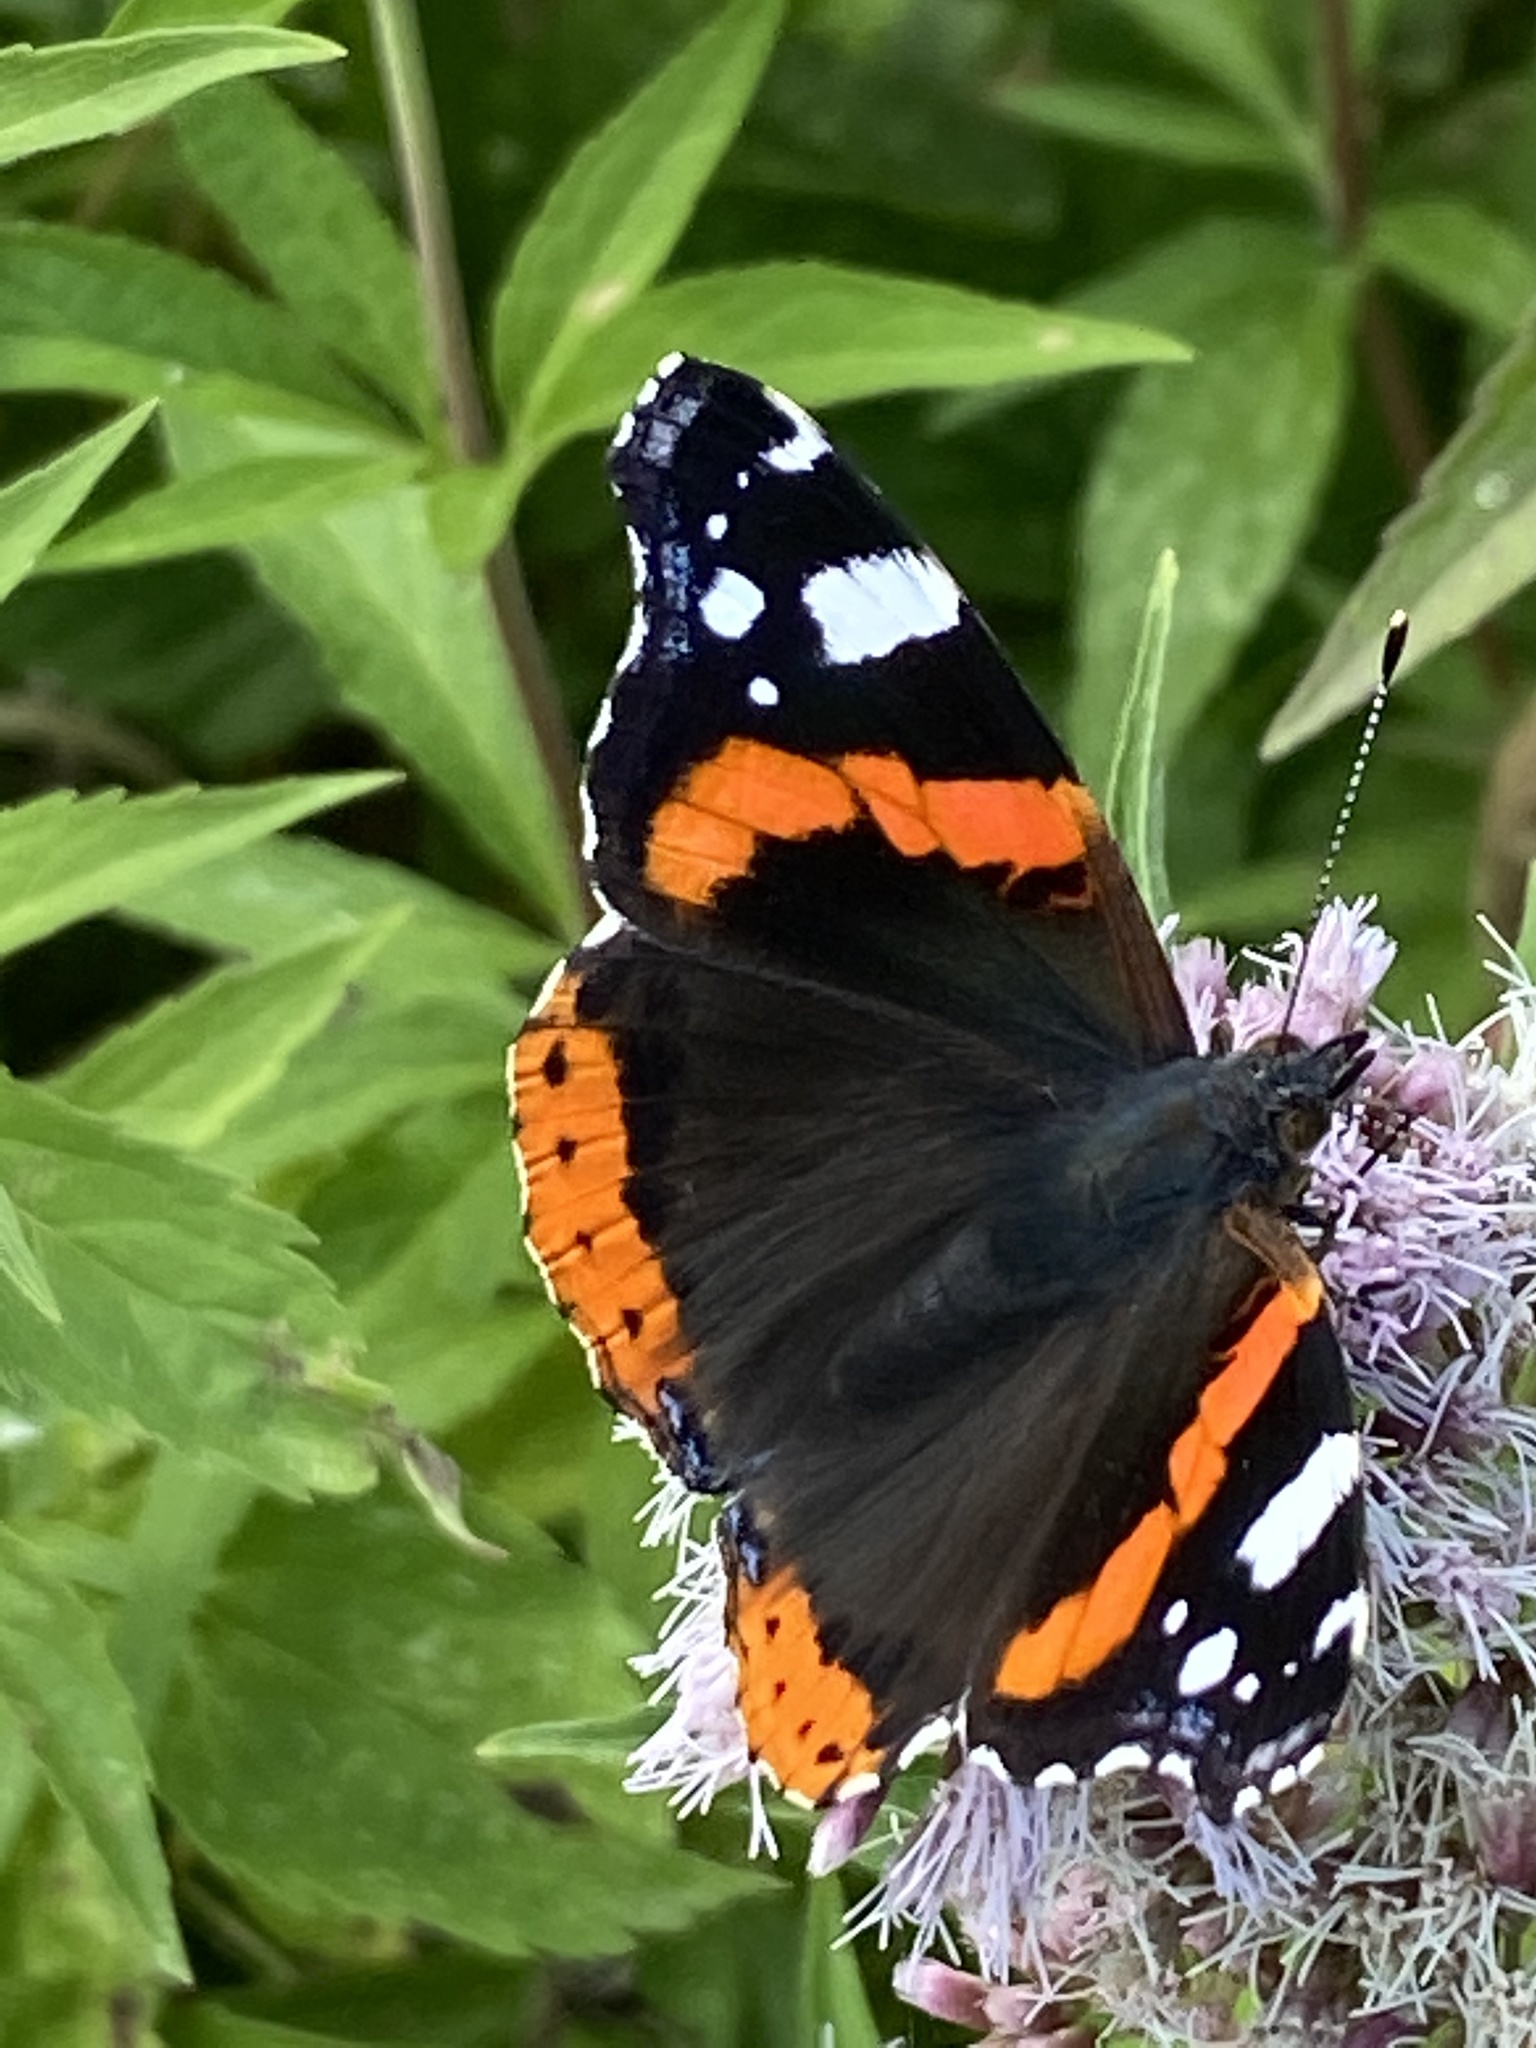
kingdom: Animalia
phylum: Arthropoda
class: Insecta
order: Lepidoptera
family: Nymphalidae
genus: Vanessa
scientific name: Vanessa atalanta
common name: Red admiral
